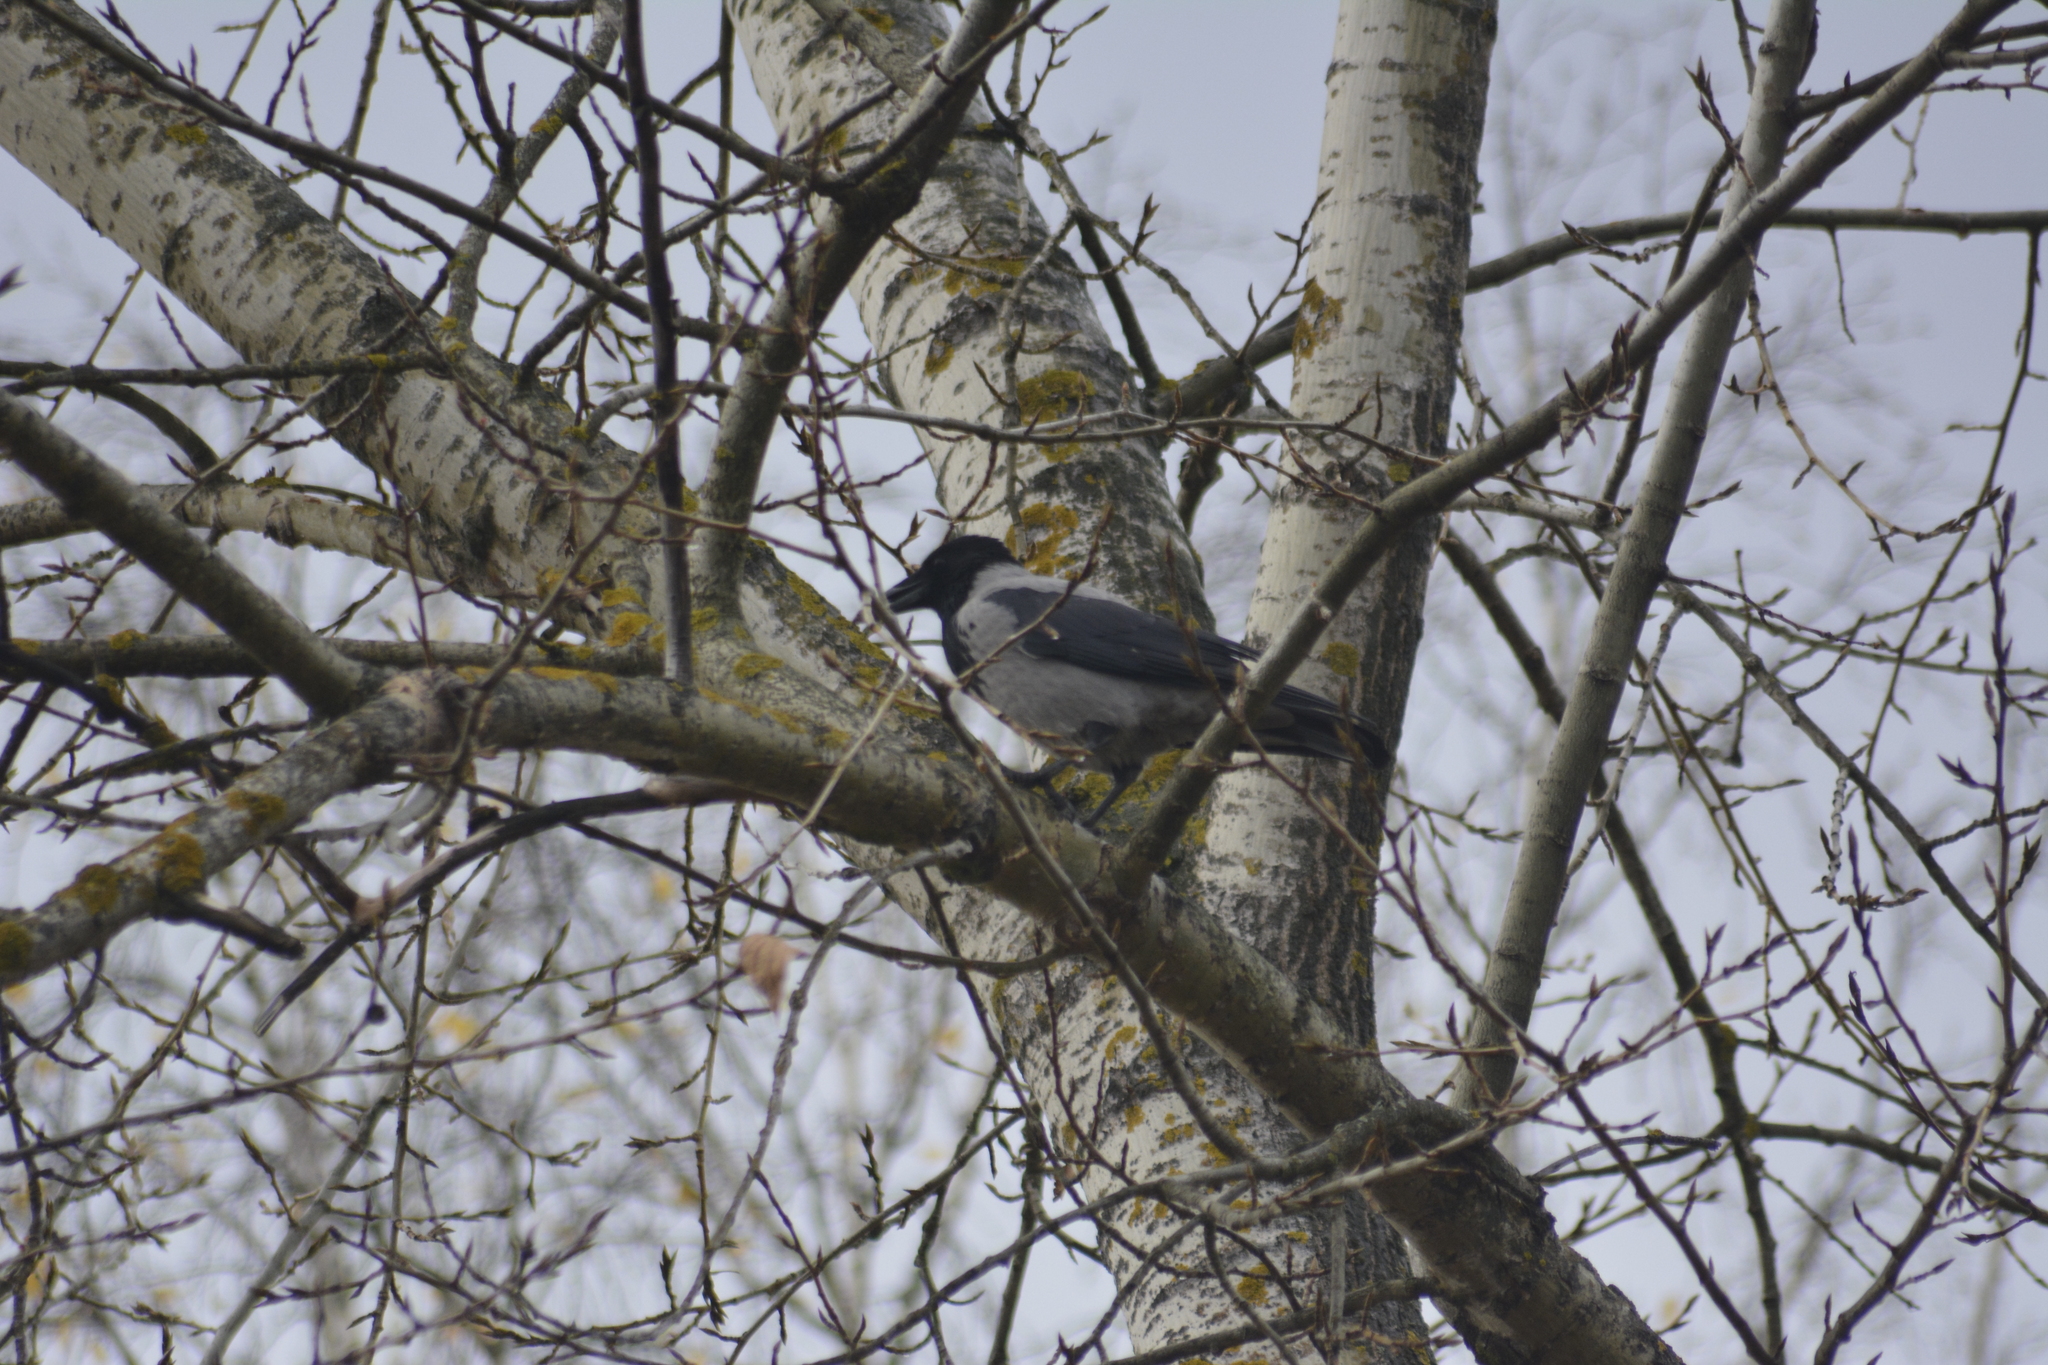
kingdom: Animalia
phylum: Chordata
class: Aves
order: Passeriformes
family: Corvidae
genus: Corvus
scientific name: Corvus cornix
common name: Hooded crow
